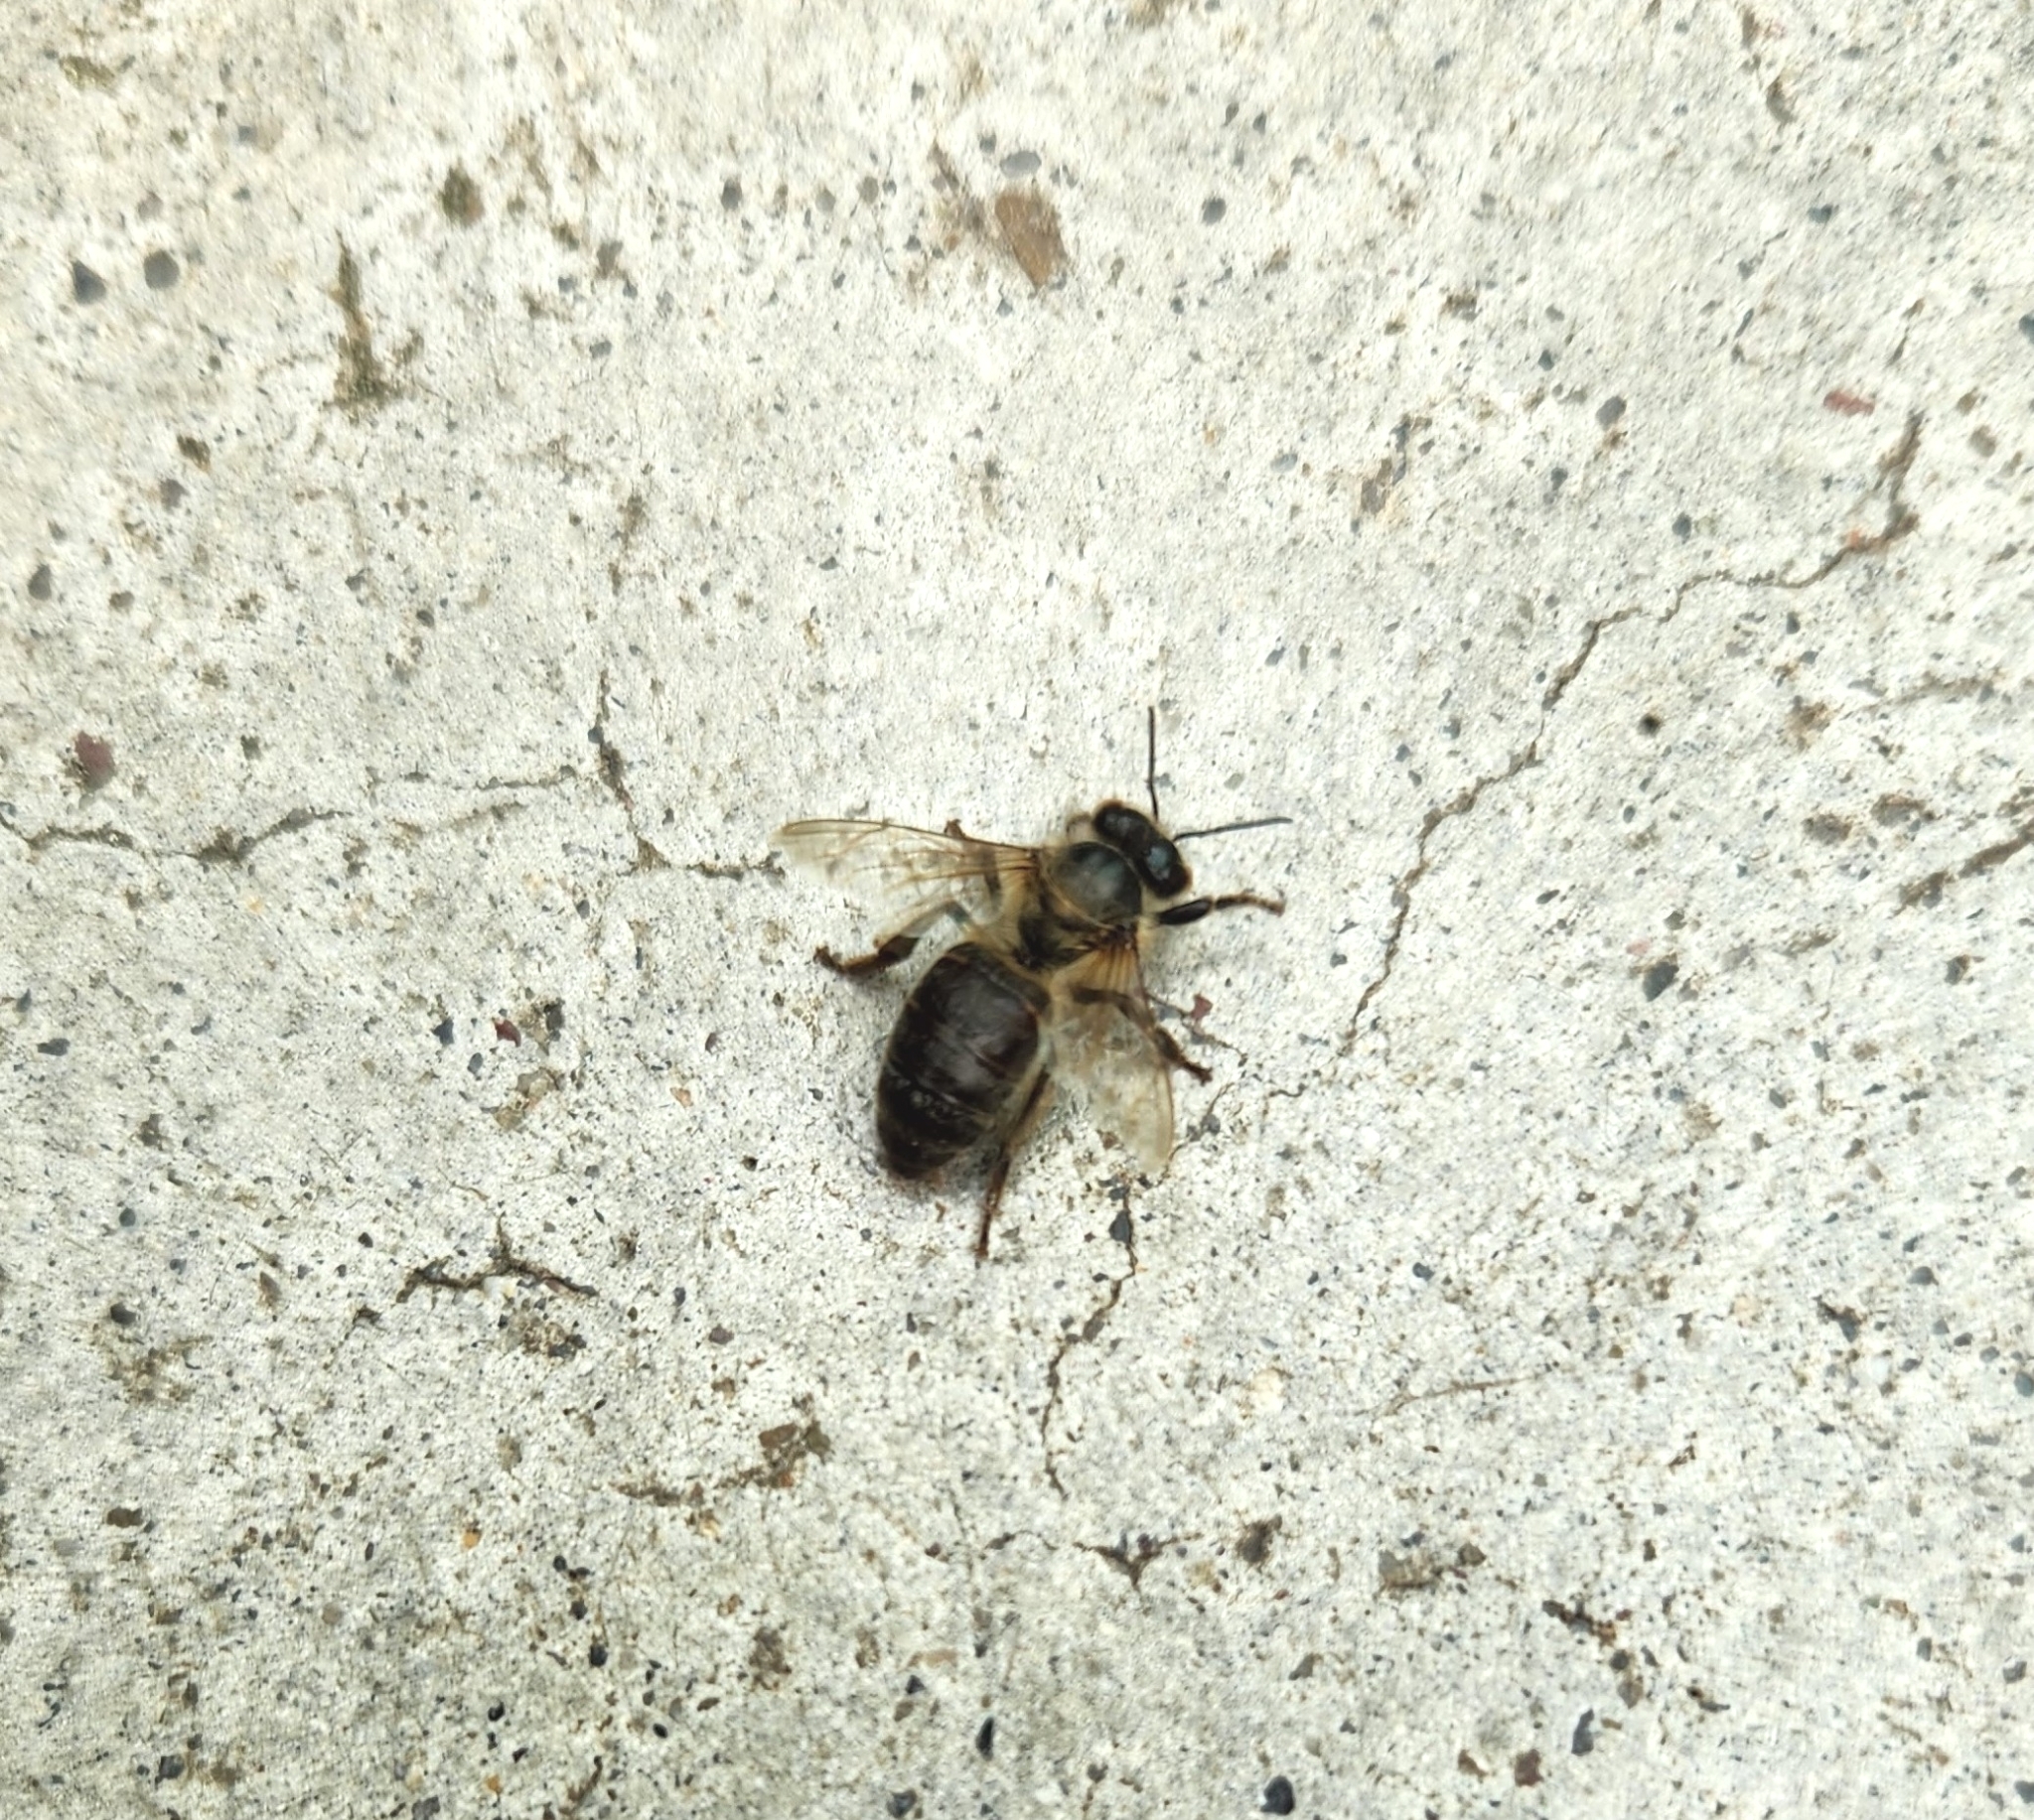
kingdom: Animalia
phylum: Arthropoda
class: Insecta
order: Hymenoptera
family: Apidae
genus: Apis
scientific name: Apis mellifera
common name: Honey bee
